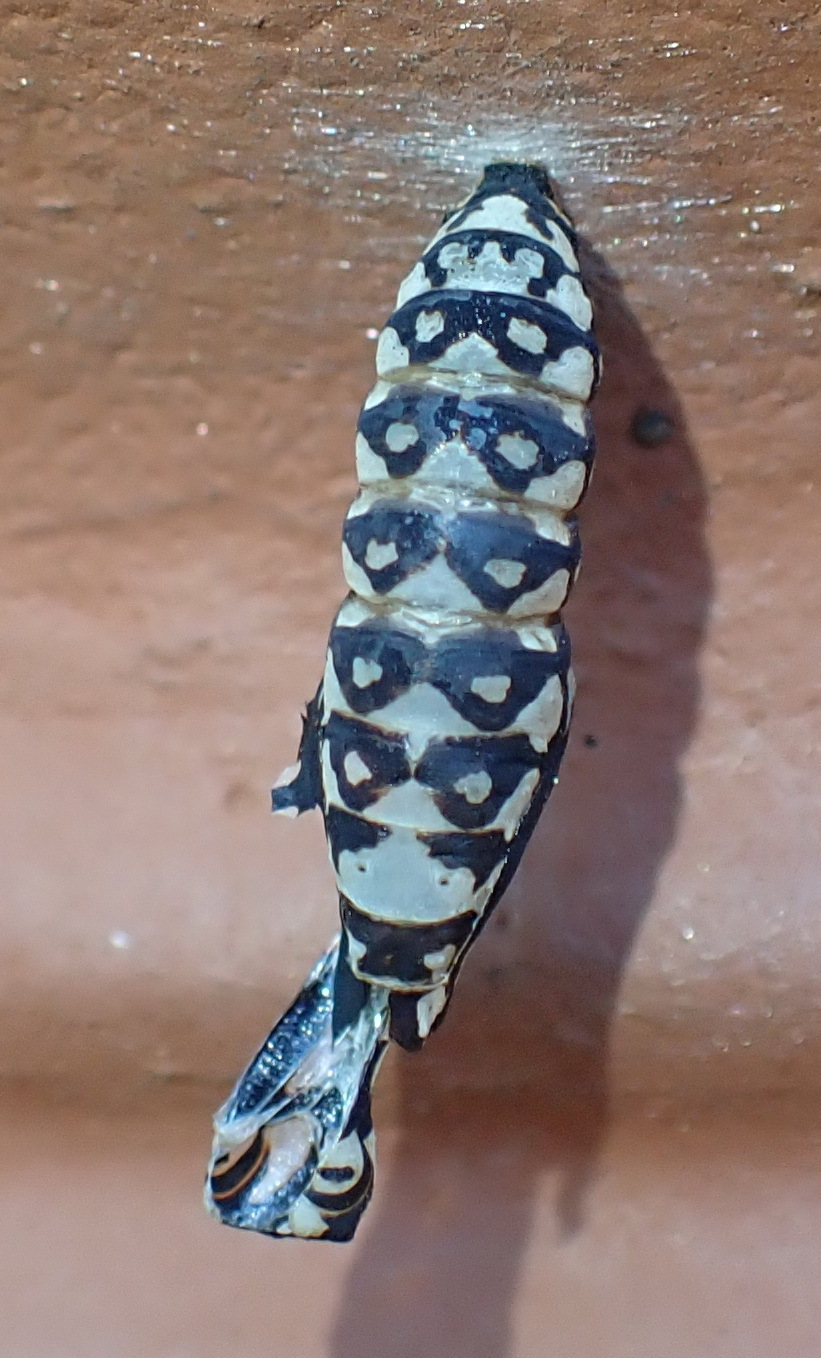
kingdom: Animalia
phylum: Arthropoda
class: Insecta
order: Lepidoptera
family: Nymphalidae
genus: Acraea
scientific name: Acraea horta
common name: Garden acraea
